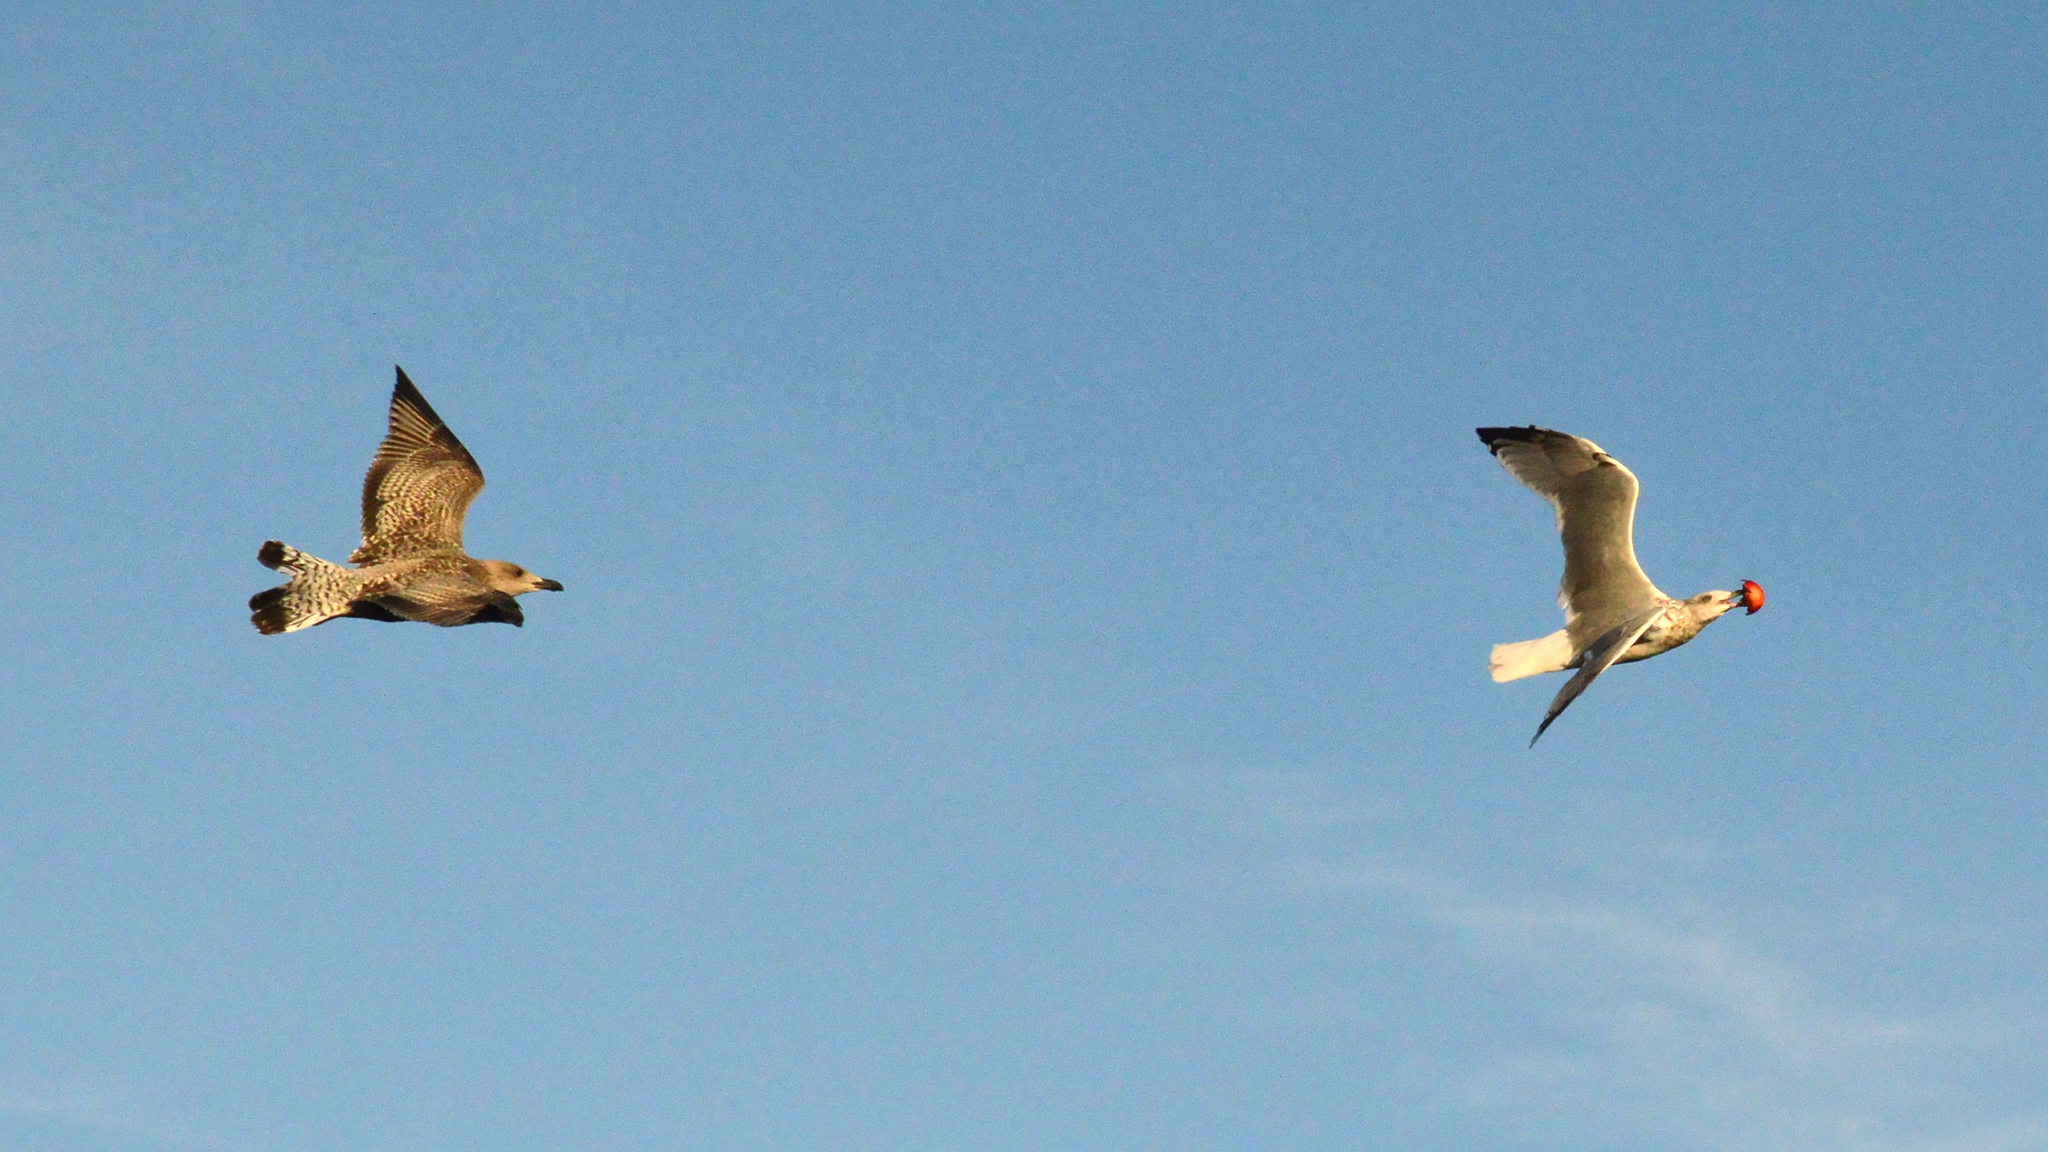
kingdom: Animalia
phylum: Chordata
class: Aves
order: Charadriiformes
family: Laridae
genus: Larus
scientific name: Larus argentatus
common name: Herring gull
